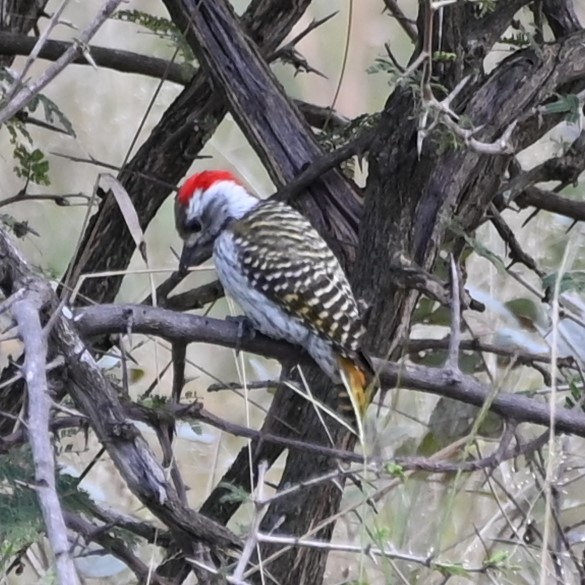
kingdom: Animalia
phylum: Chordata
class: Aves
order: Piciformes
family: Picidae
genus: Dendropicos
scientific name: Dendropicos fuscescens
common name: Cardinal woodpecker
